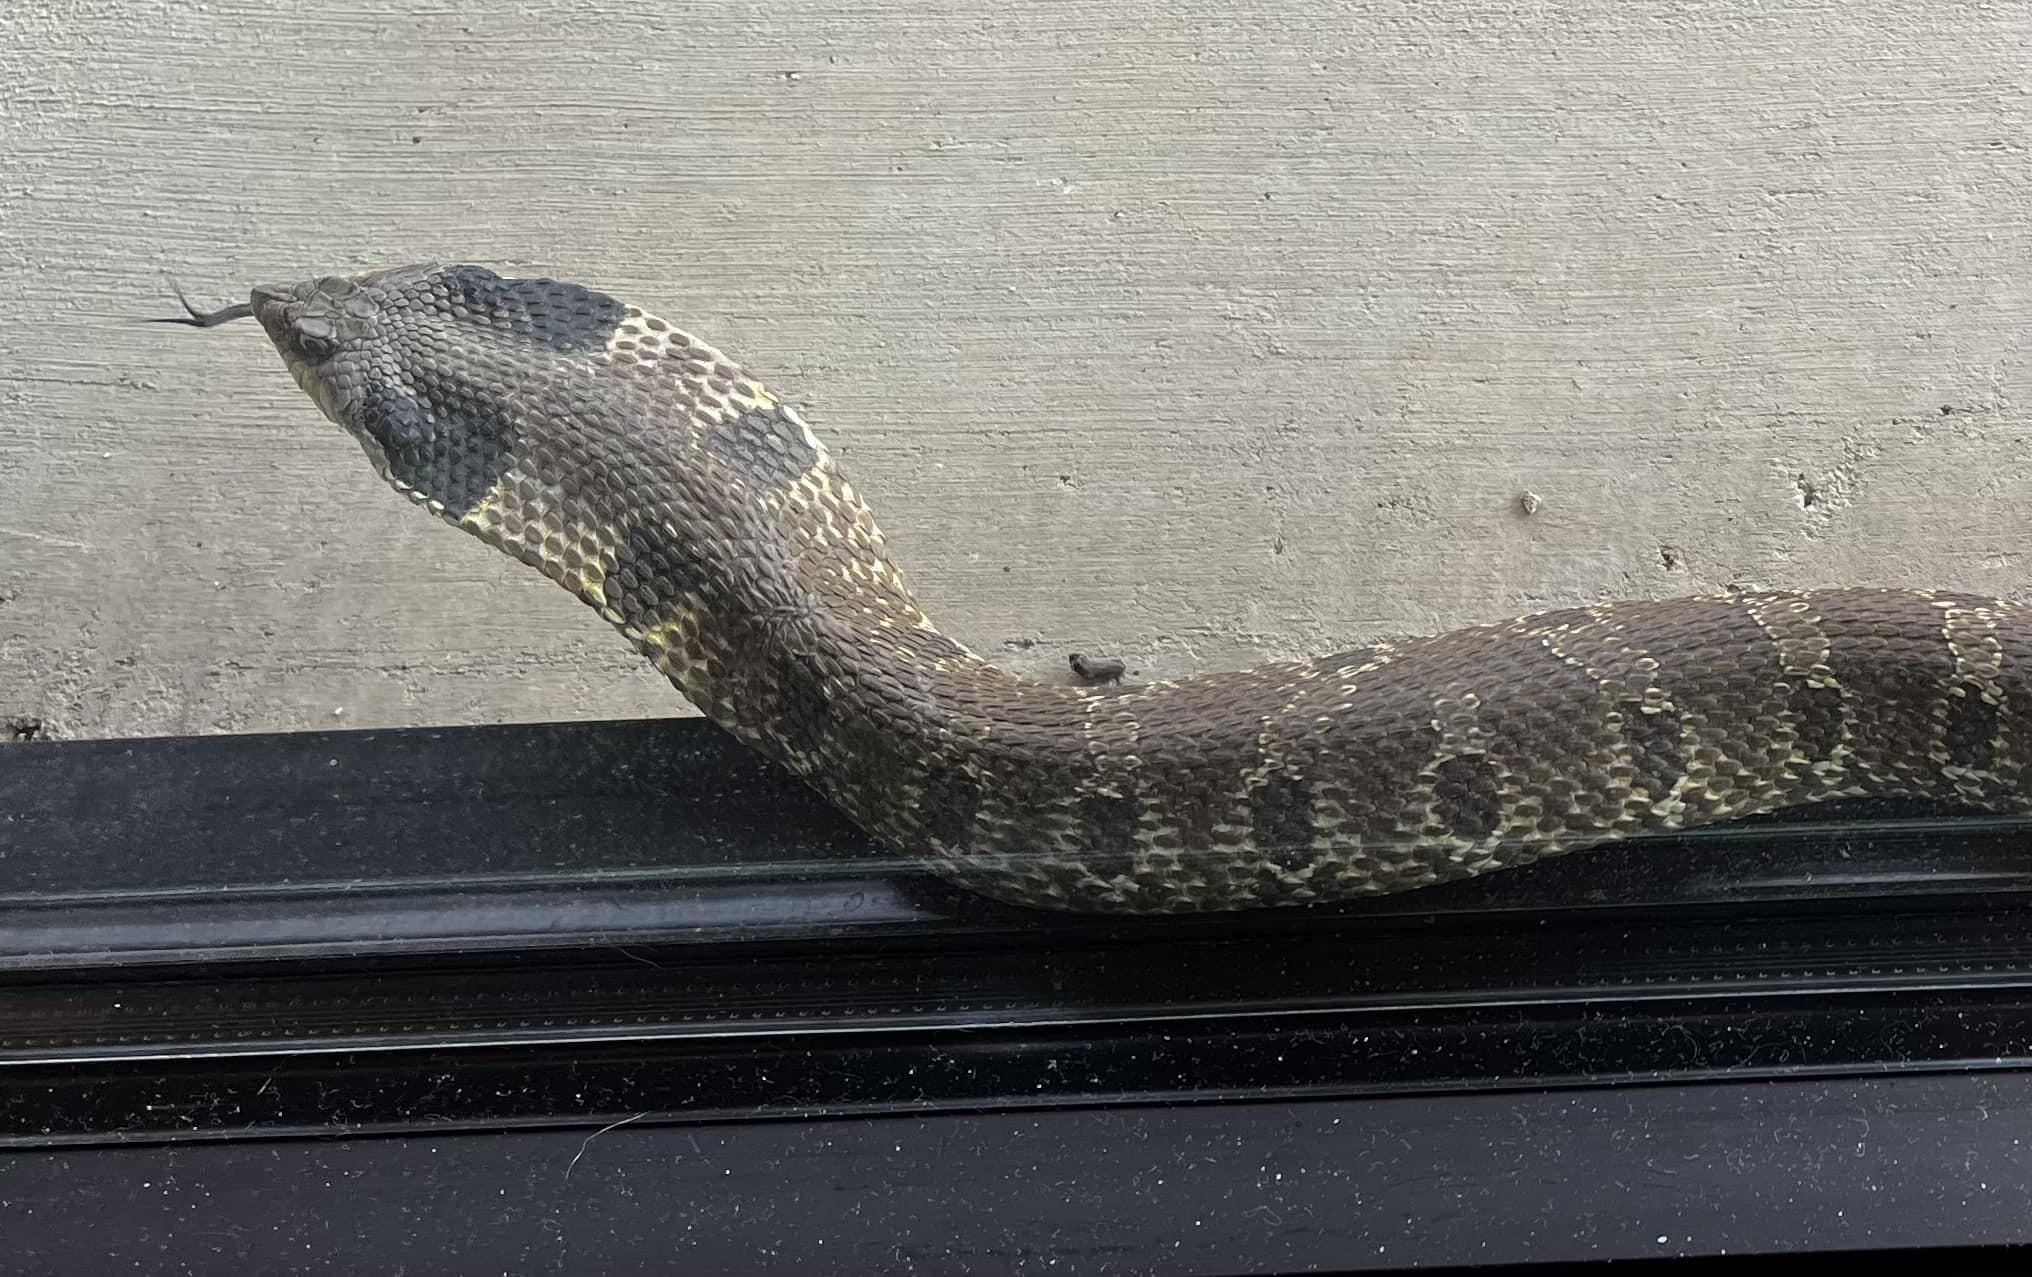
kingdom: Animalia
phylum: Chordata
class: Squamata
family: Colubridae
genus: Heterodon
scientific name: Heterodon platirhinos
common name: Eastern hognose snake
